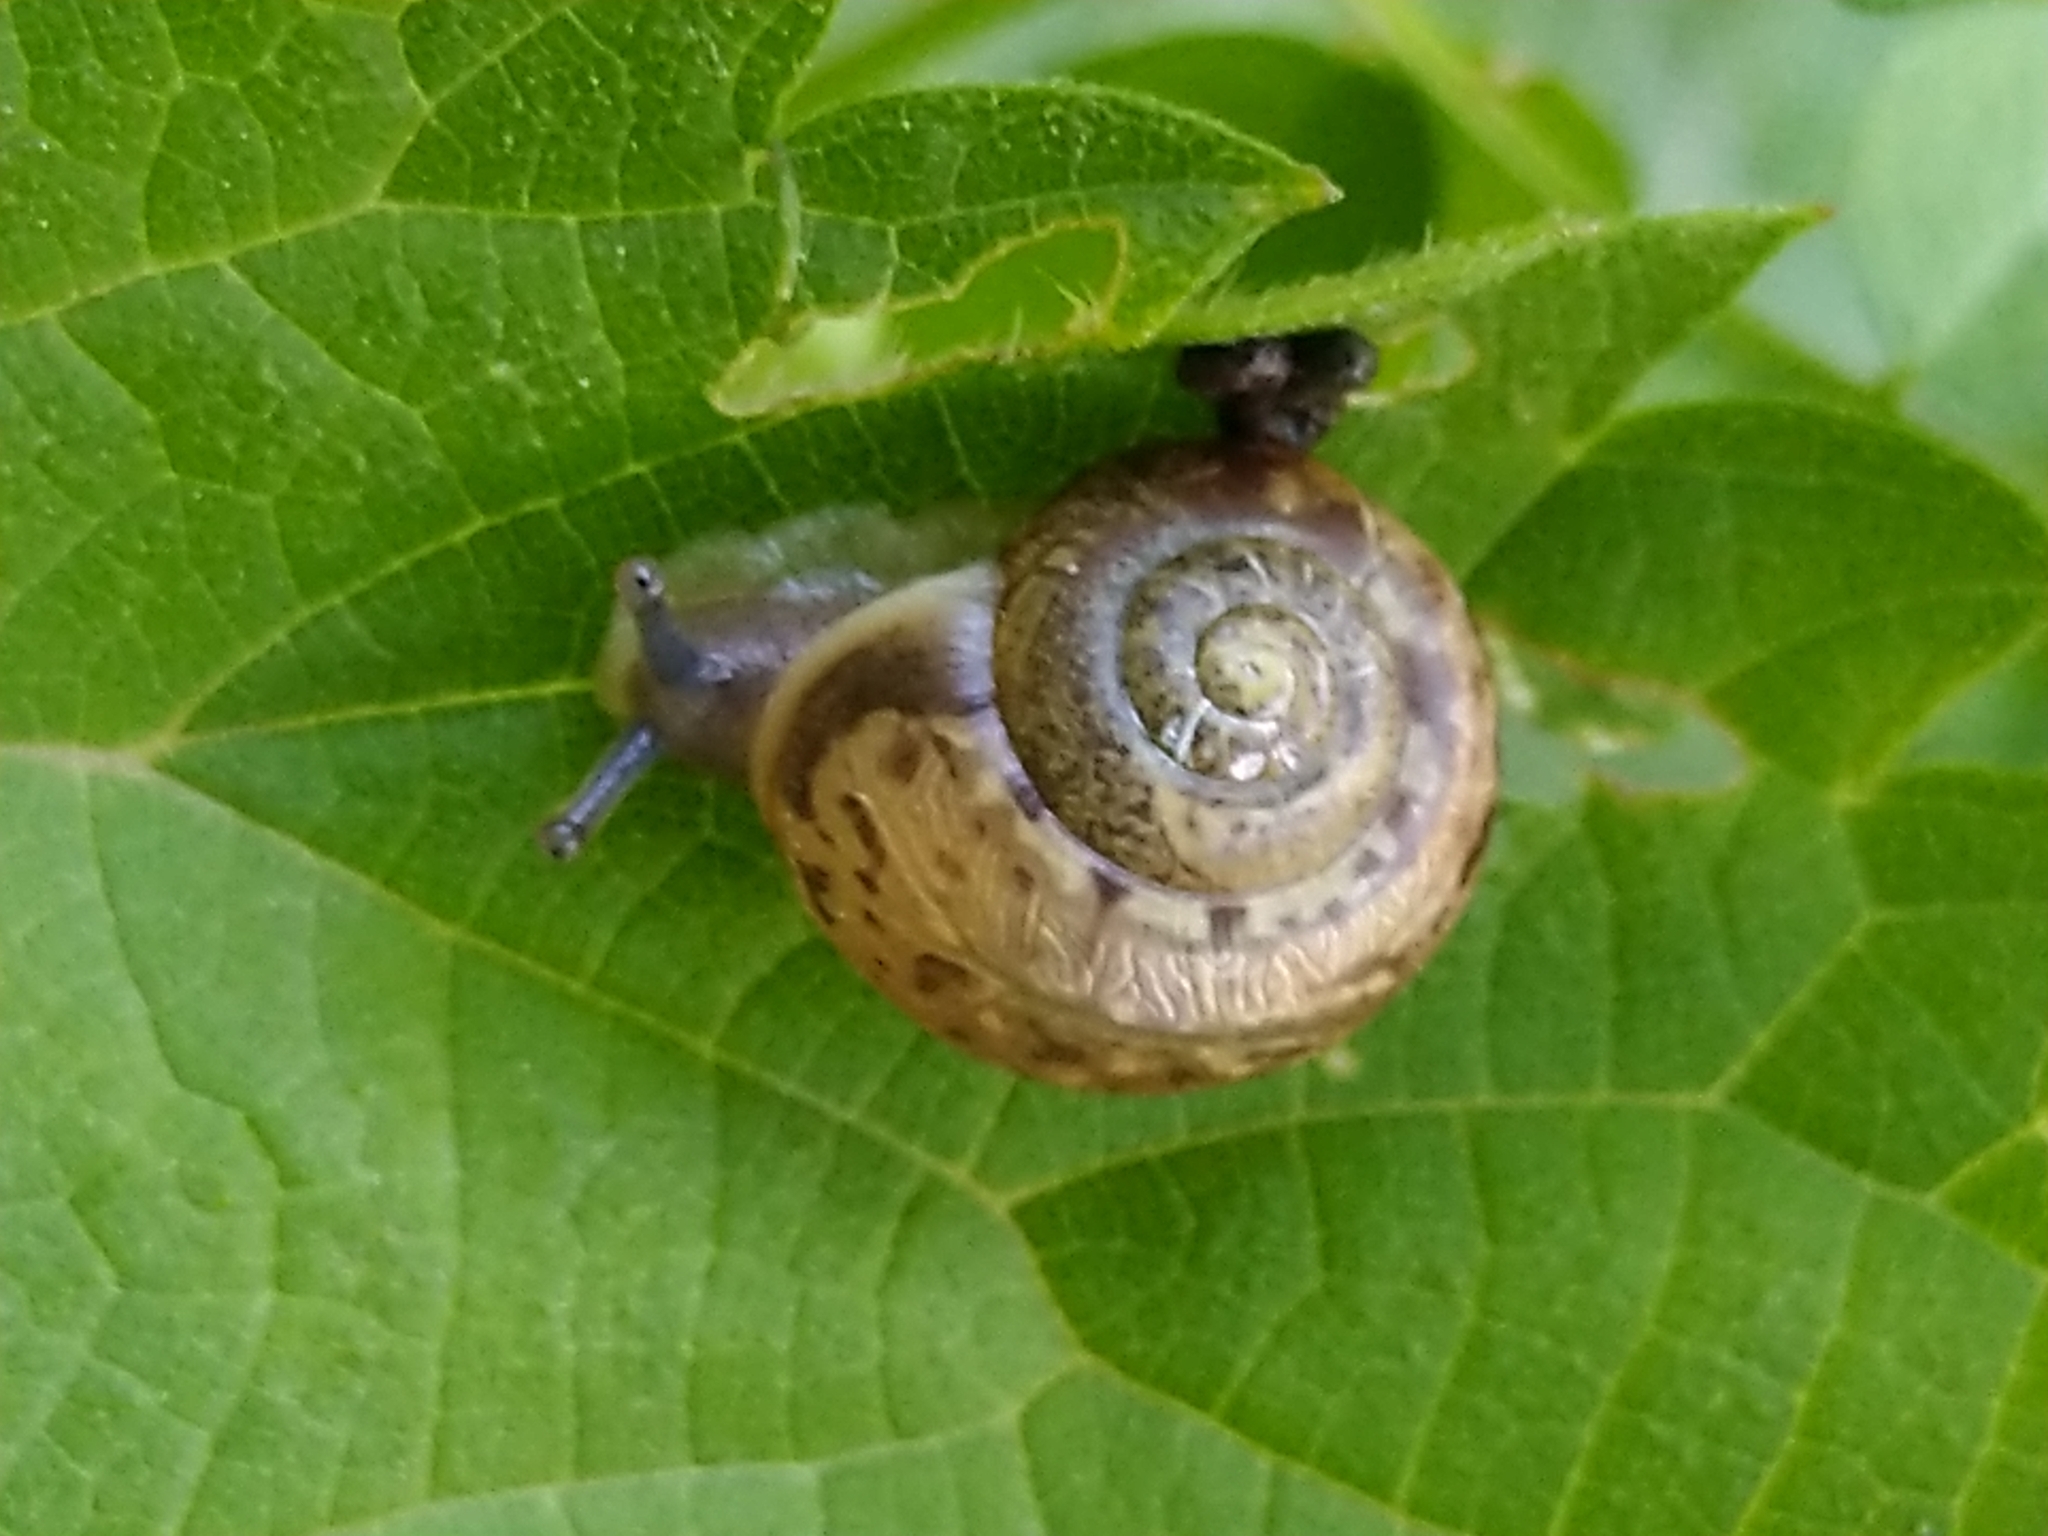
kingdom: Animalia
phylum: Mollusca
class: Gastropoda
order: Stylommatophora
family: Helicidae
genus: Arianta
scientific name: Arianta arbustorum
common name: Copse snail
